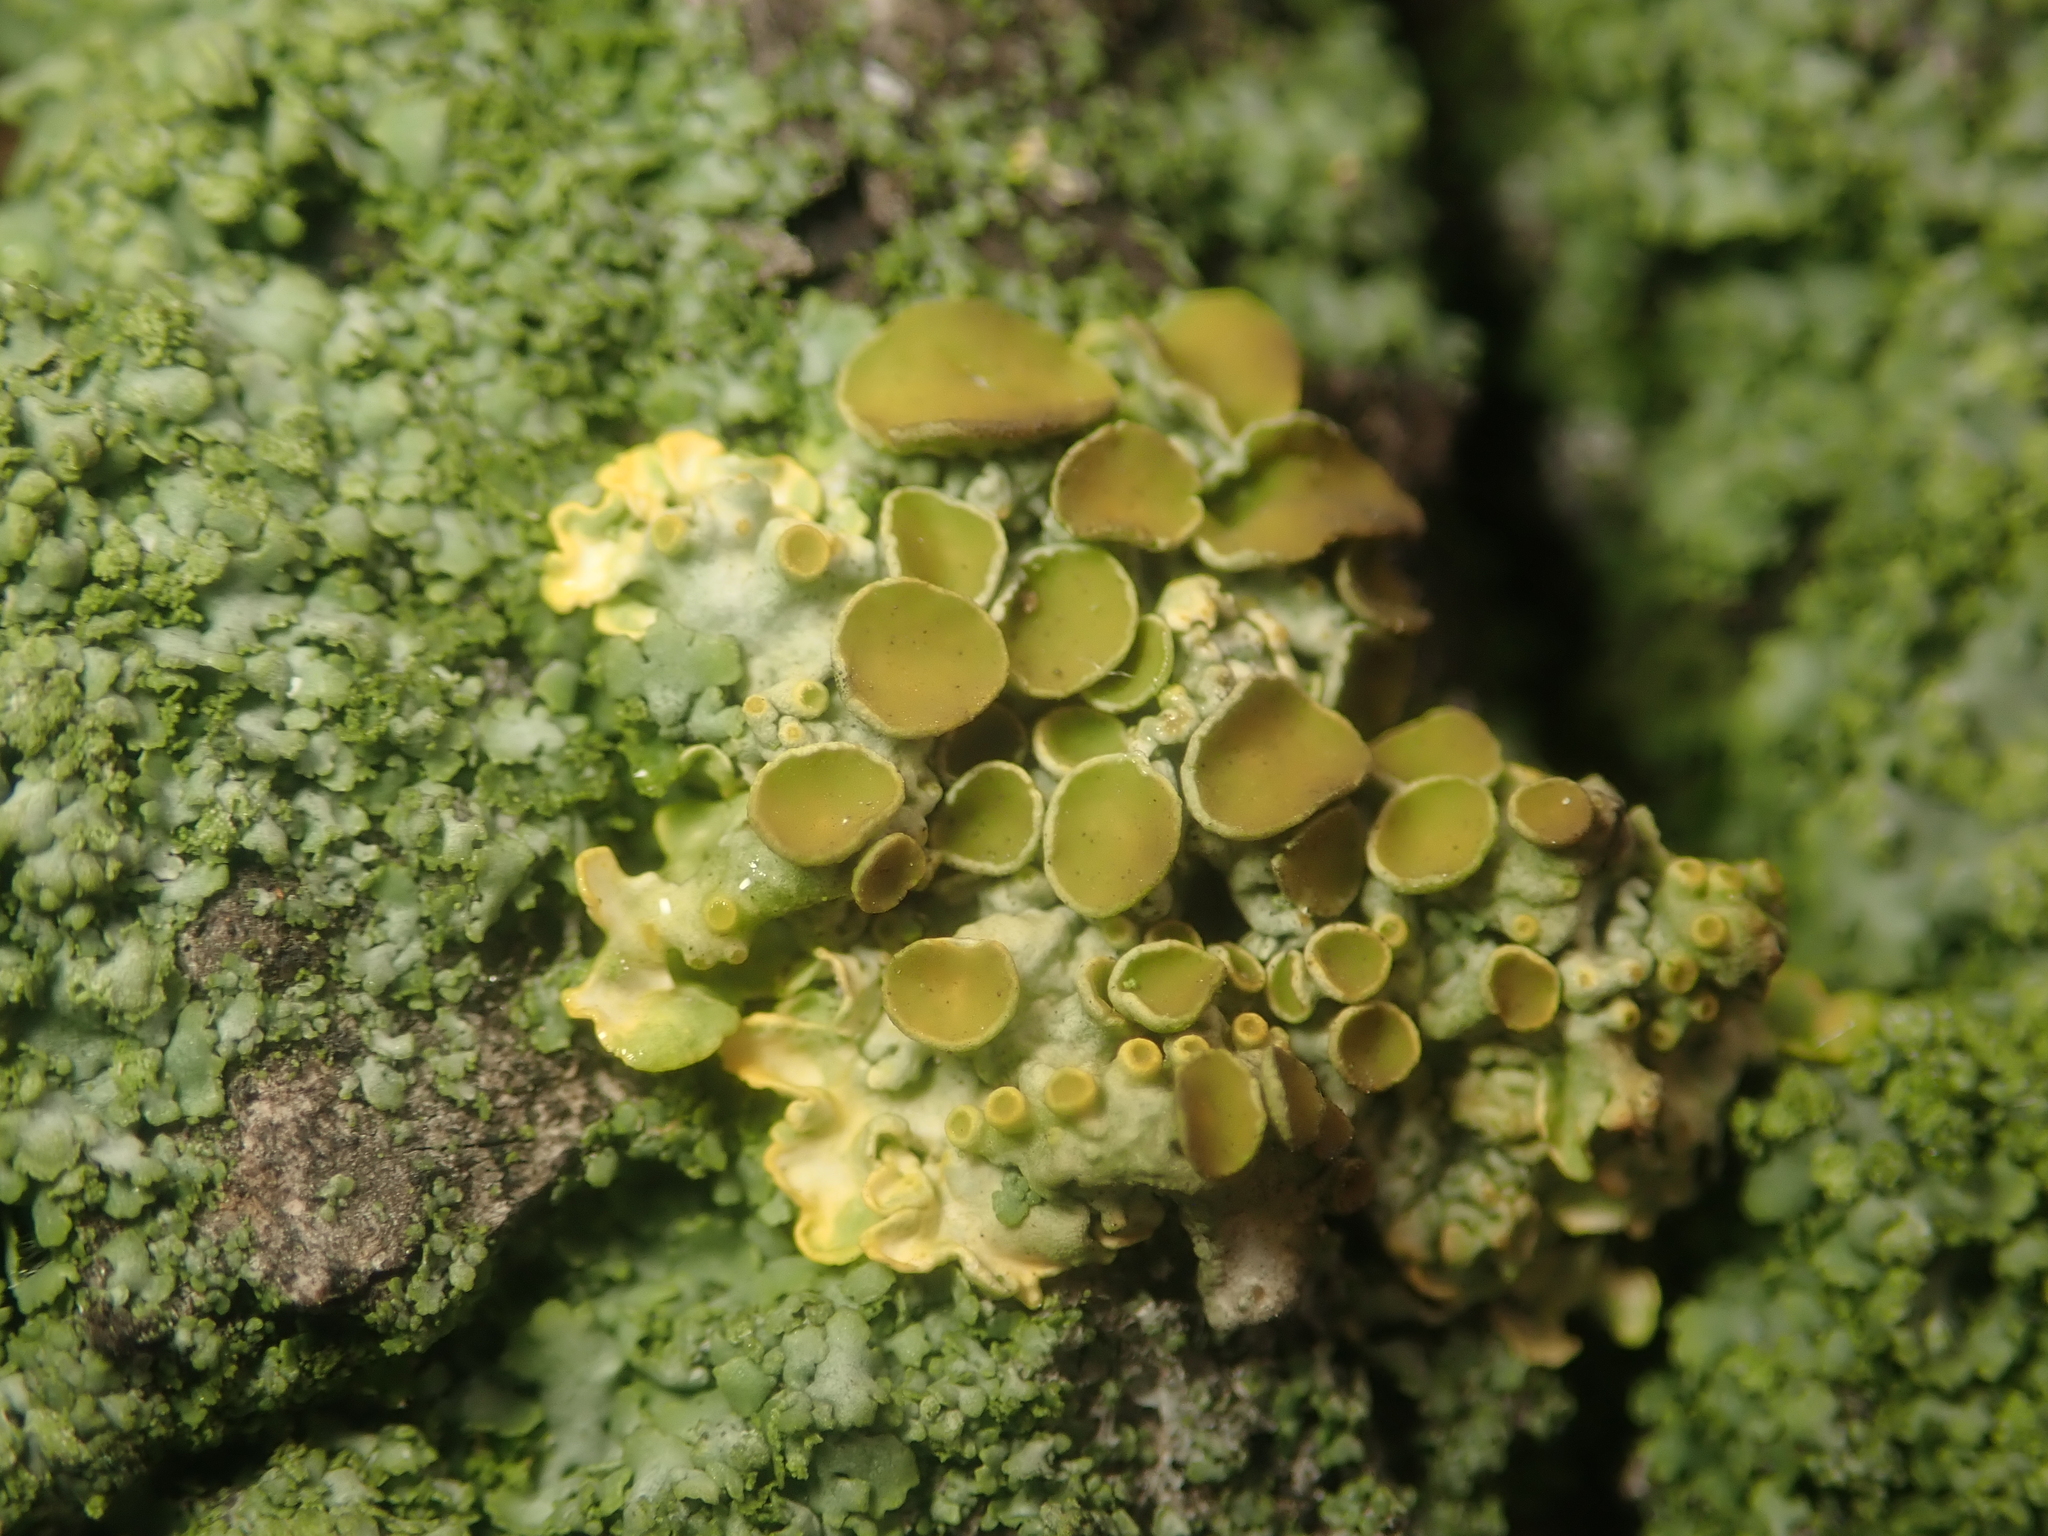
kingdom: Fungi
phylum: Ascomycota
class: Lecanoromycetes
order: Teloschistales
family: Teloschistaceae
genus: Xanthoria
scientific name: Xanthoria parietina
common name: Common orange lichen
